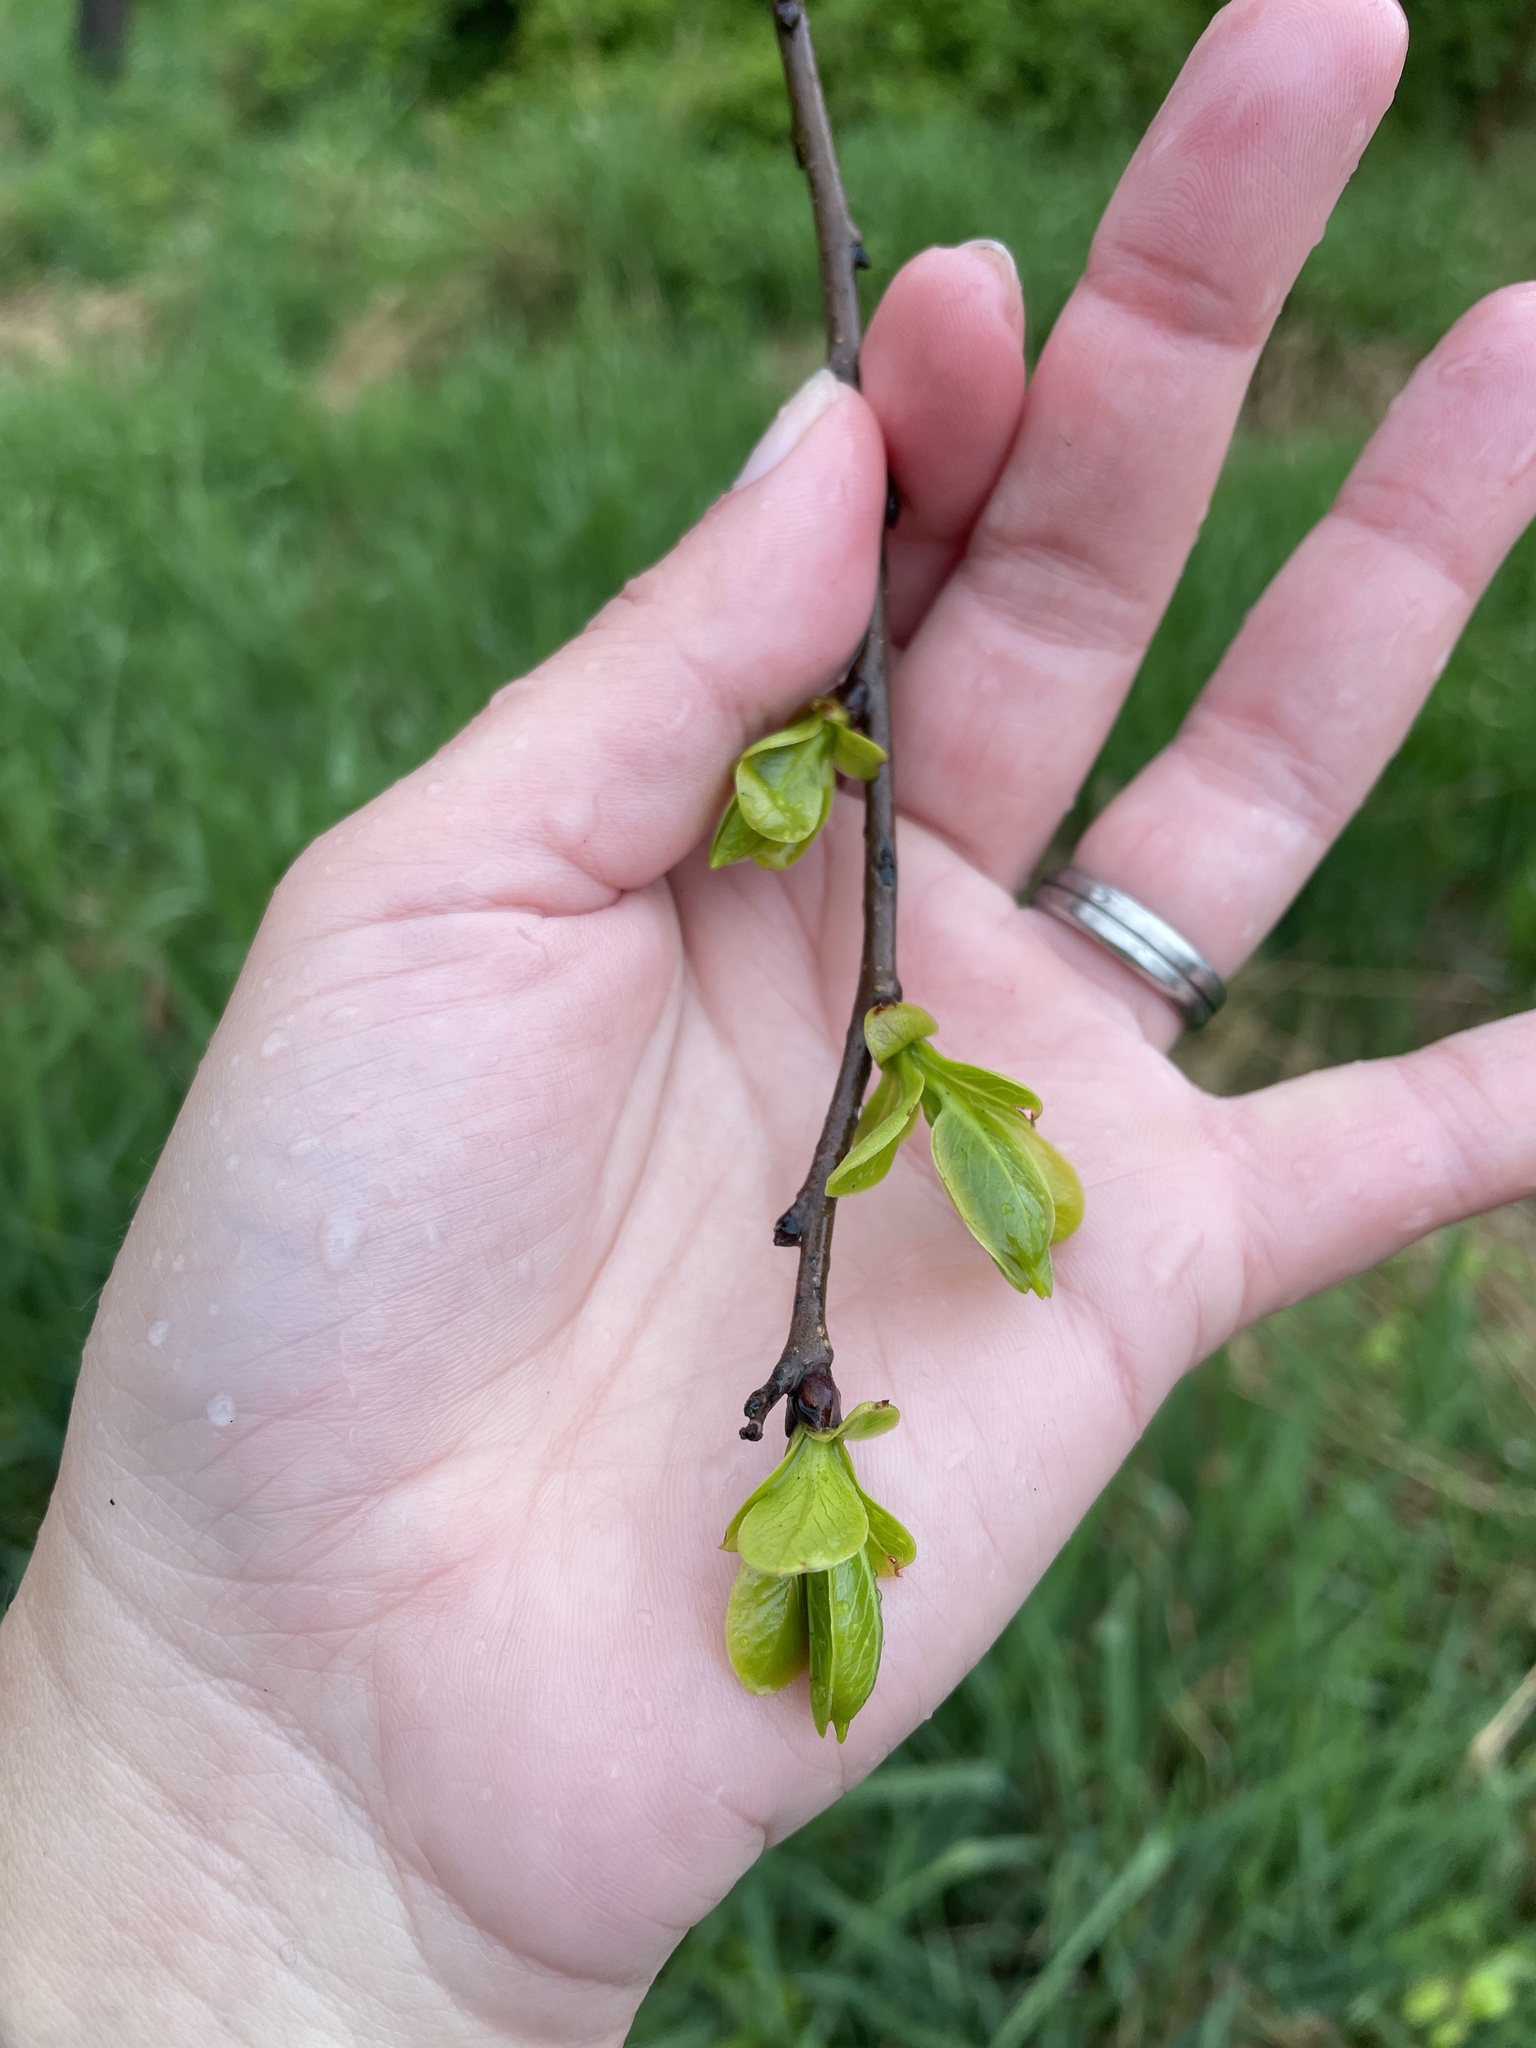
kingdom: Plantae
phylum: Tracheophyta
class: Magnoliopsida
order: Ericales
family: Ebenaceae
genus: Diospyros
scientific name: Diospyros virginiana
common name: Persimmon
